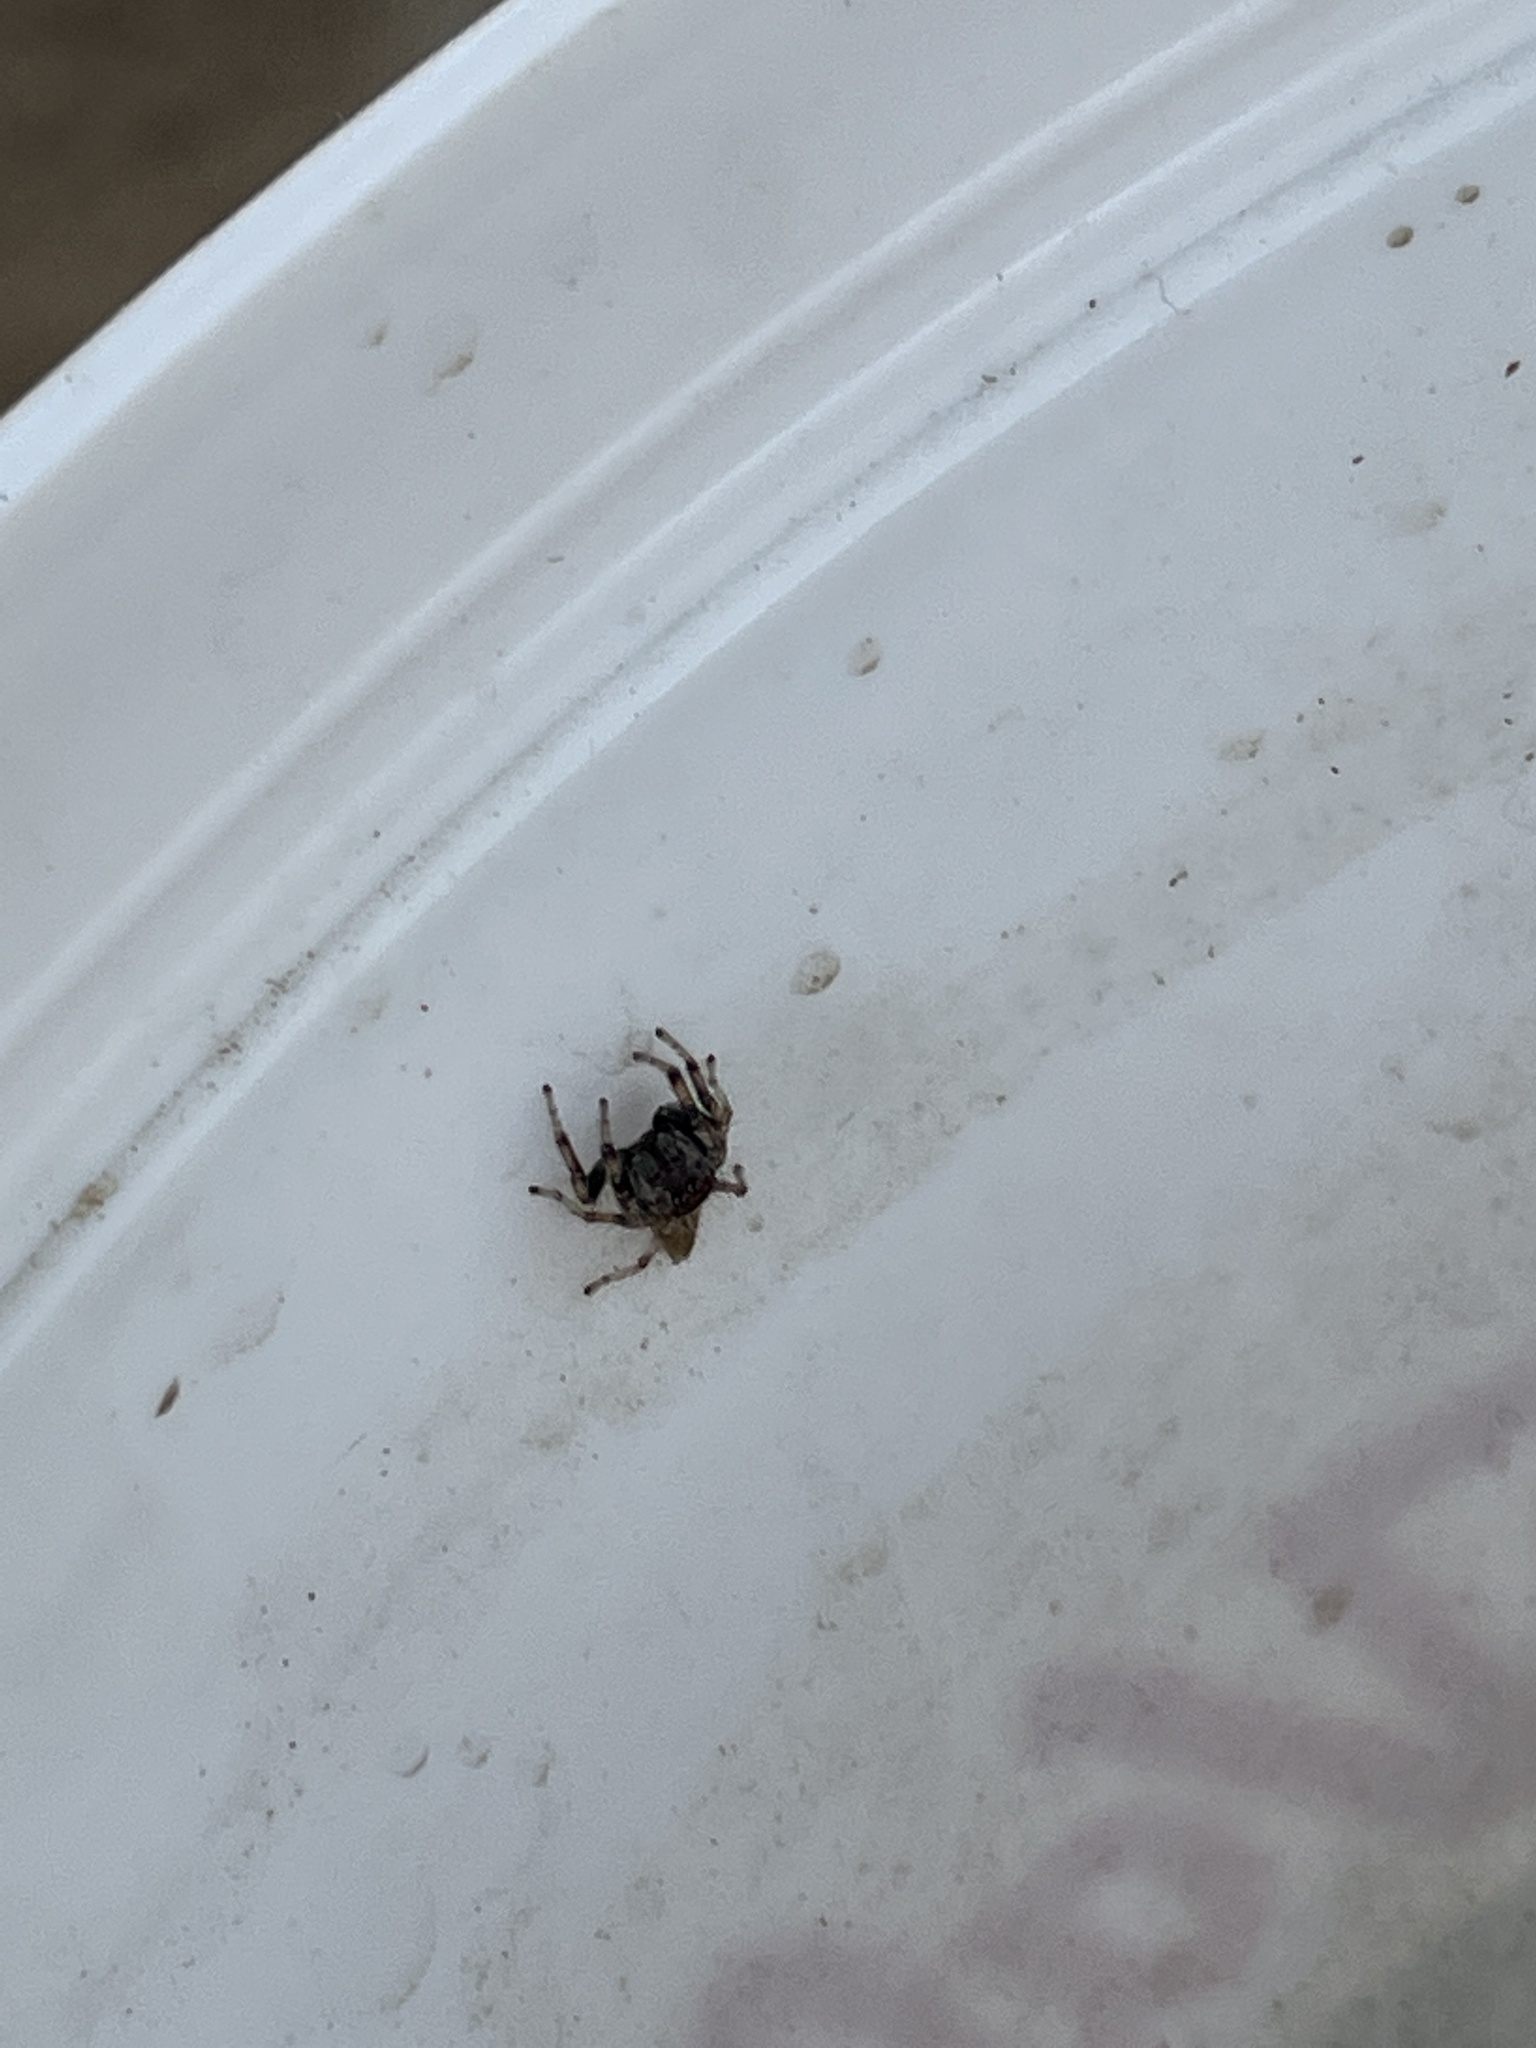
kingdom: Animalia
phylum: Arthropoda
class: Arachnida
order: Araneae
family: Salticidae
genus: Colonus
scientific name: Colonus hesperus
